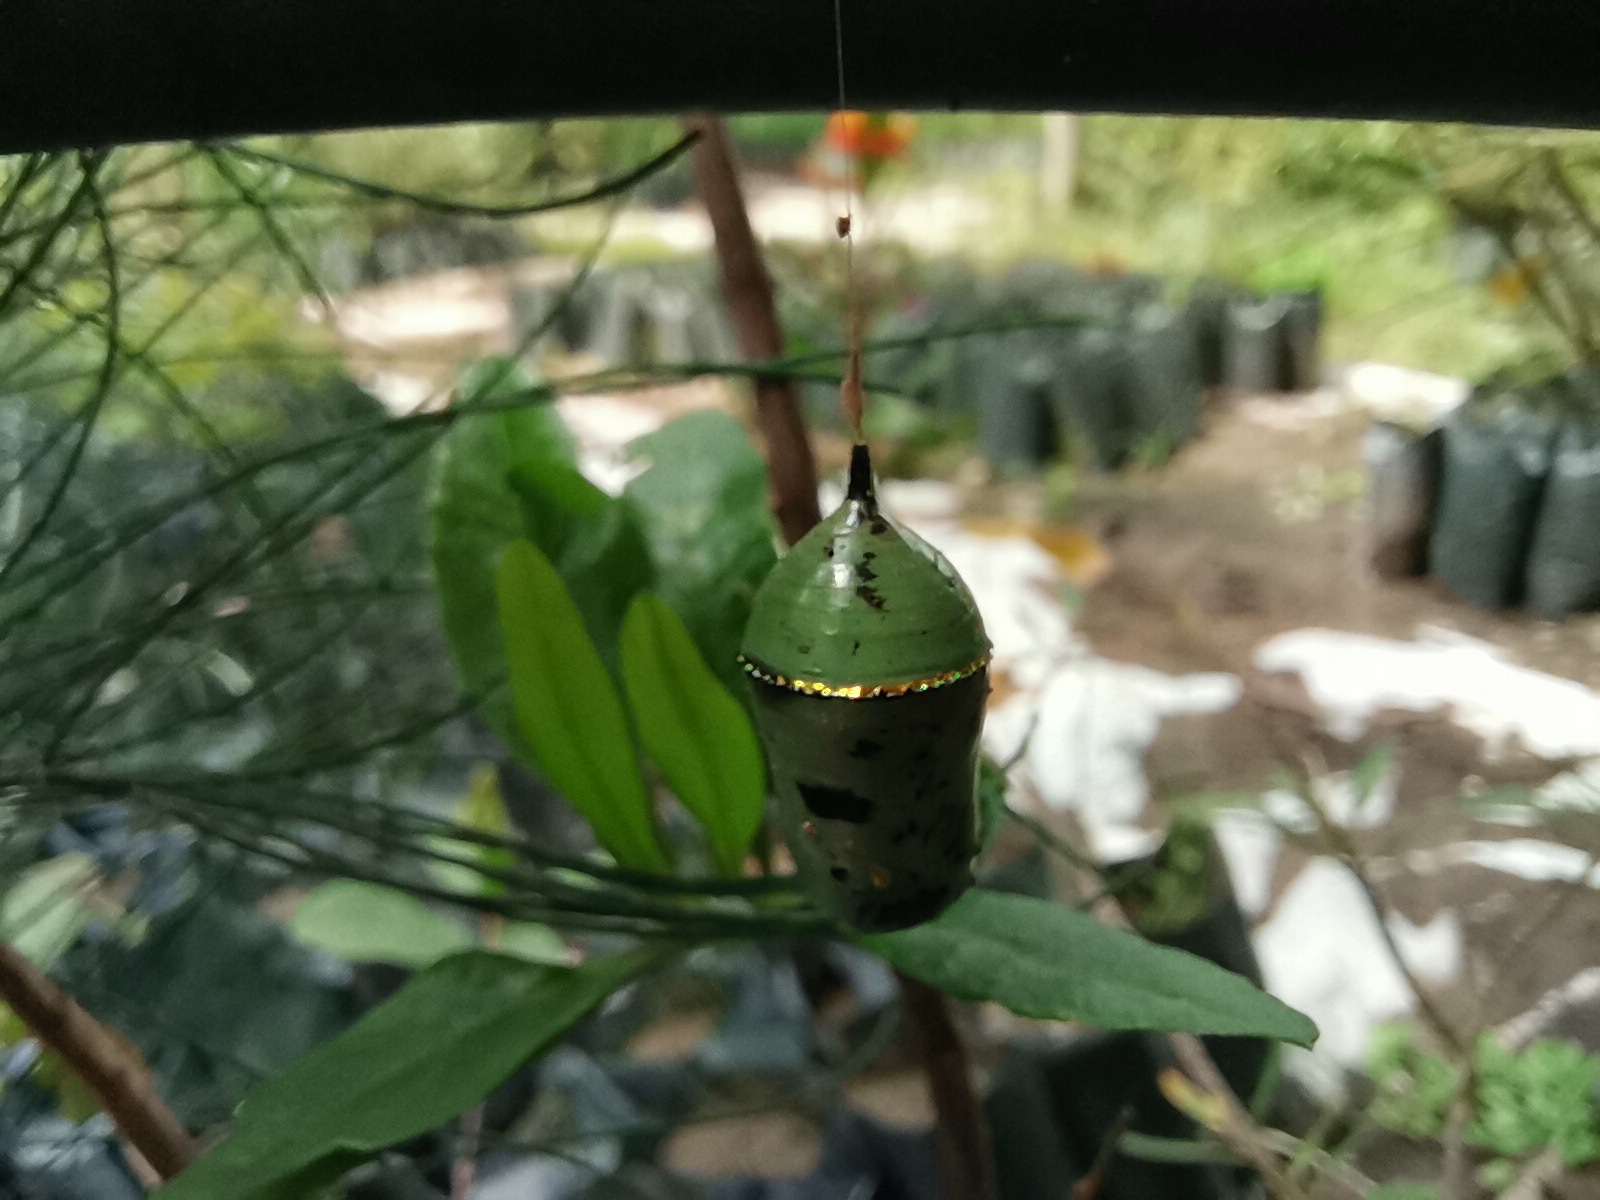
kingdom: Animalia
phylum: Arthropoda
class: Insecta
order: Lepidoptera
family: Nymphalidae
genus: Danaus
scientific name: Danaus plexippus
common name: Monarch
